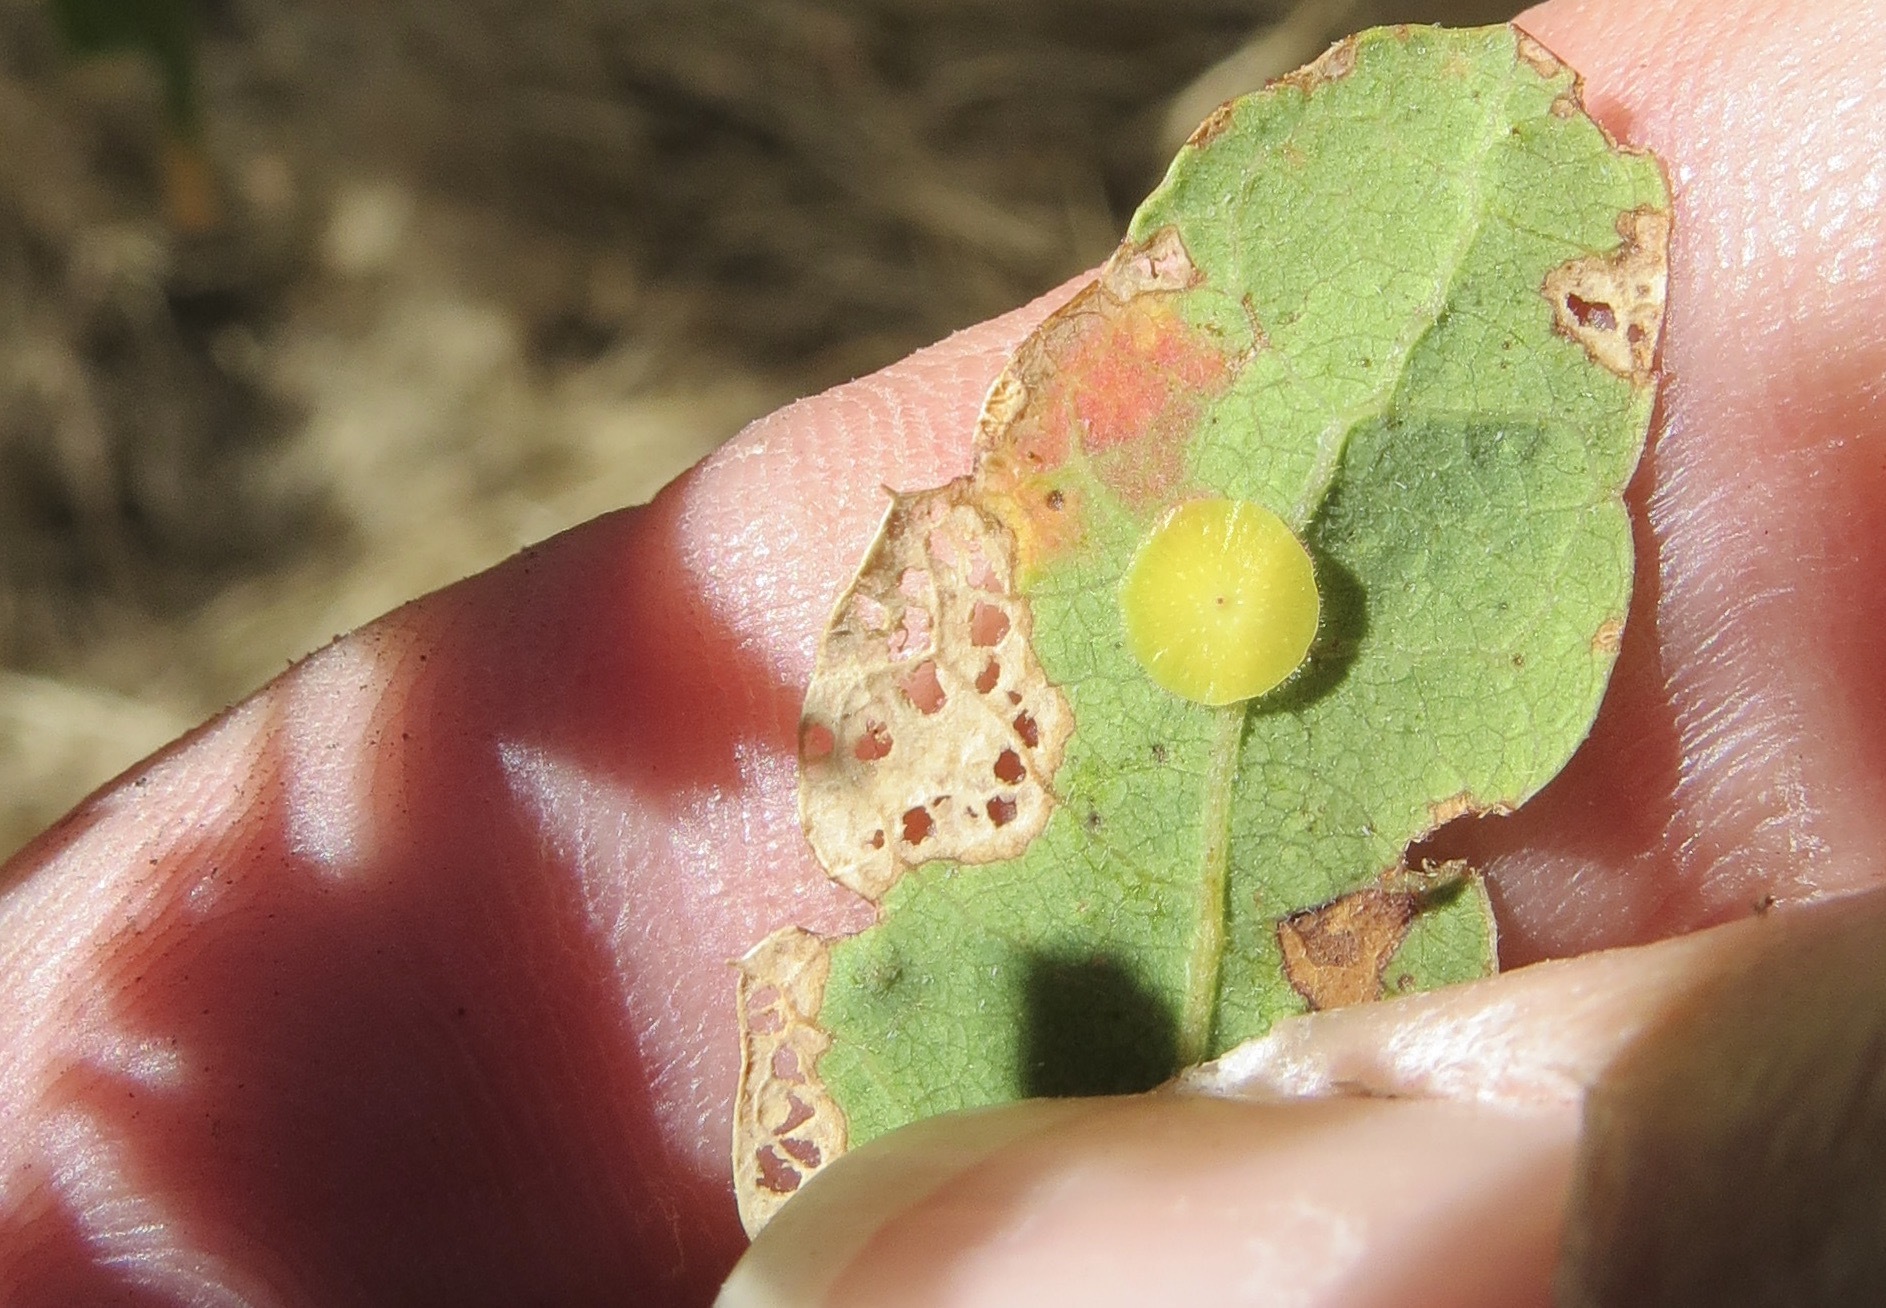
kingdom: Animalia
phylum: Arthropoda
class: Insecta
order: Hymenoptera
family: Cynipidae
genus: Andricus
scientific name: Andricus
